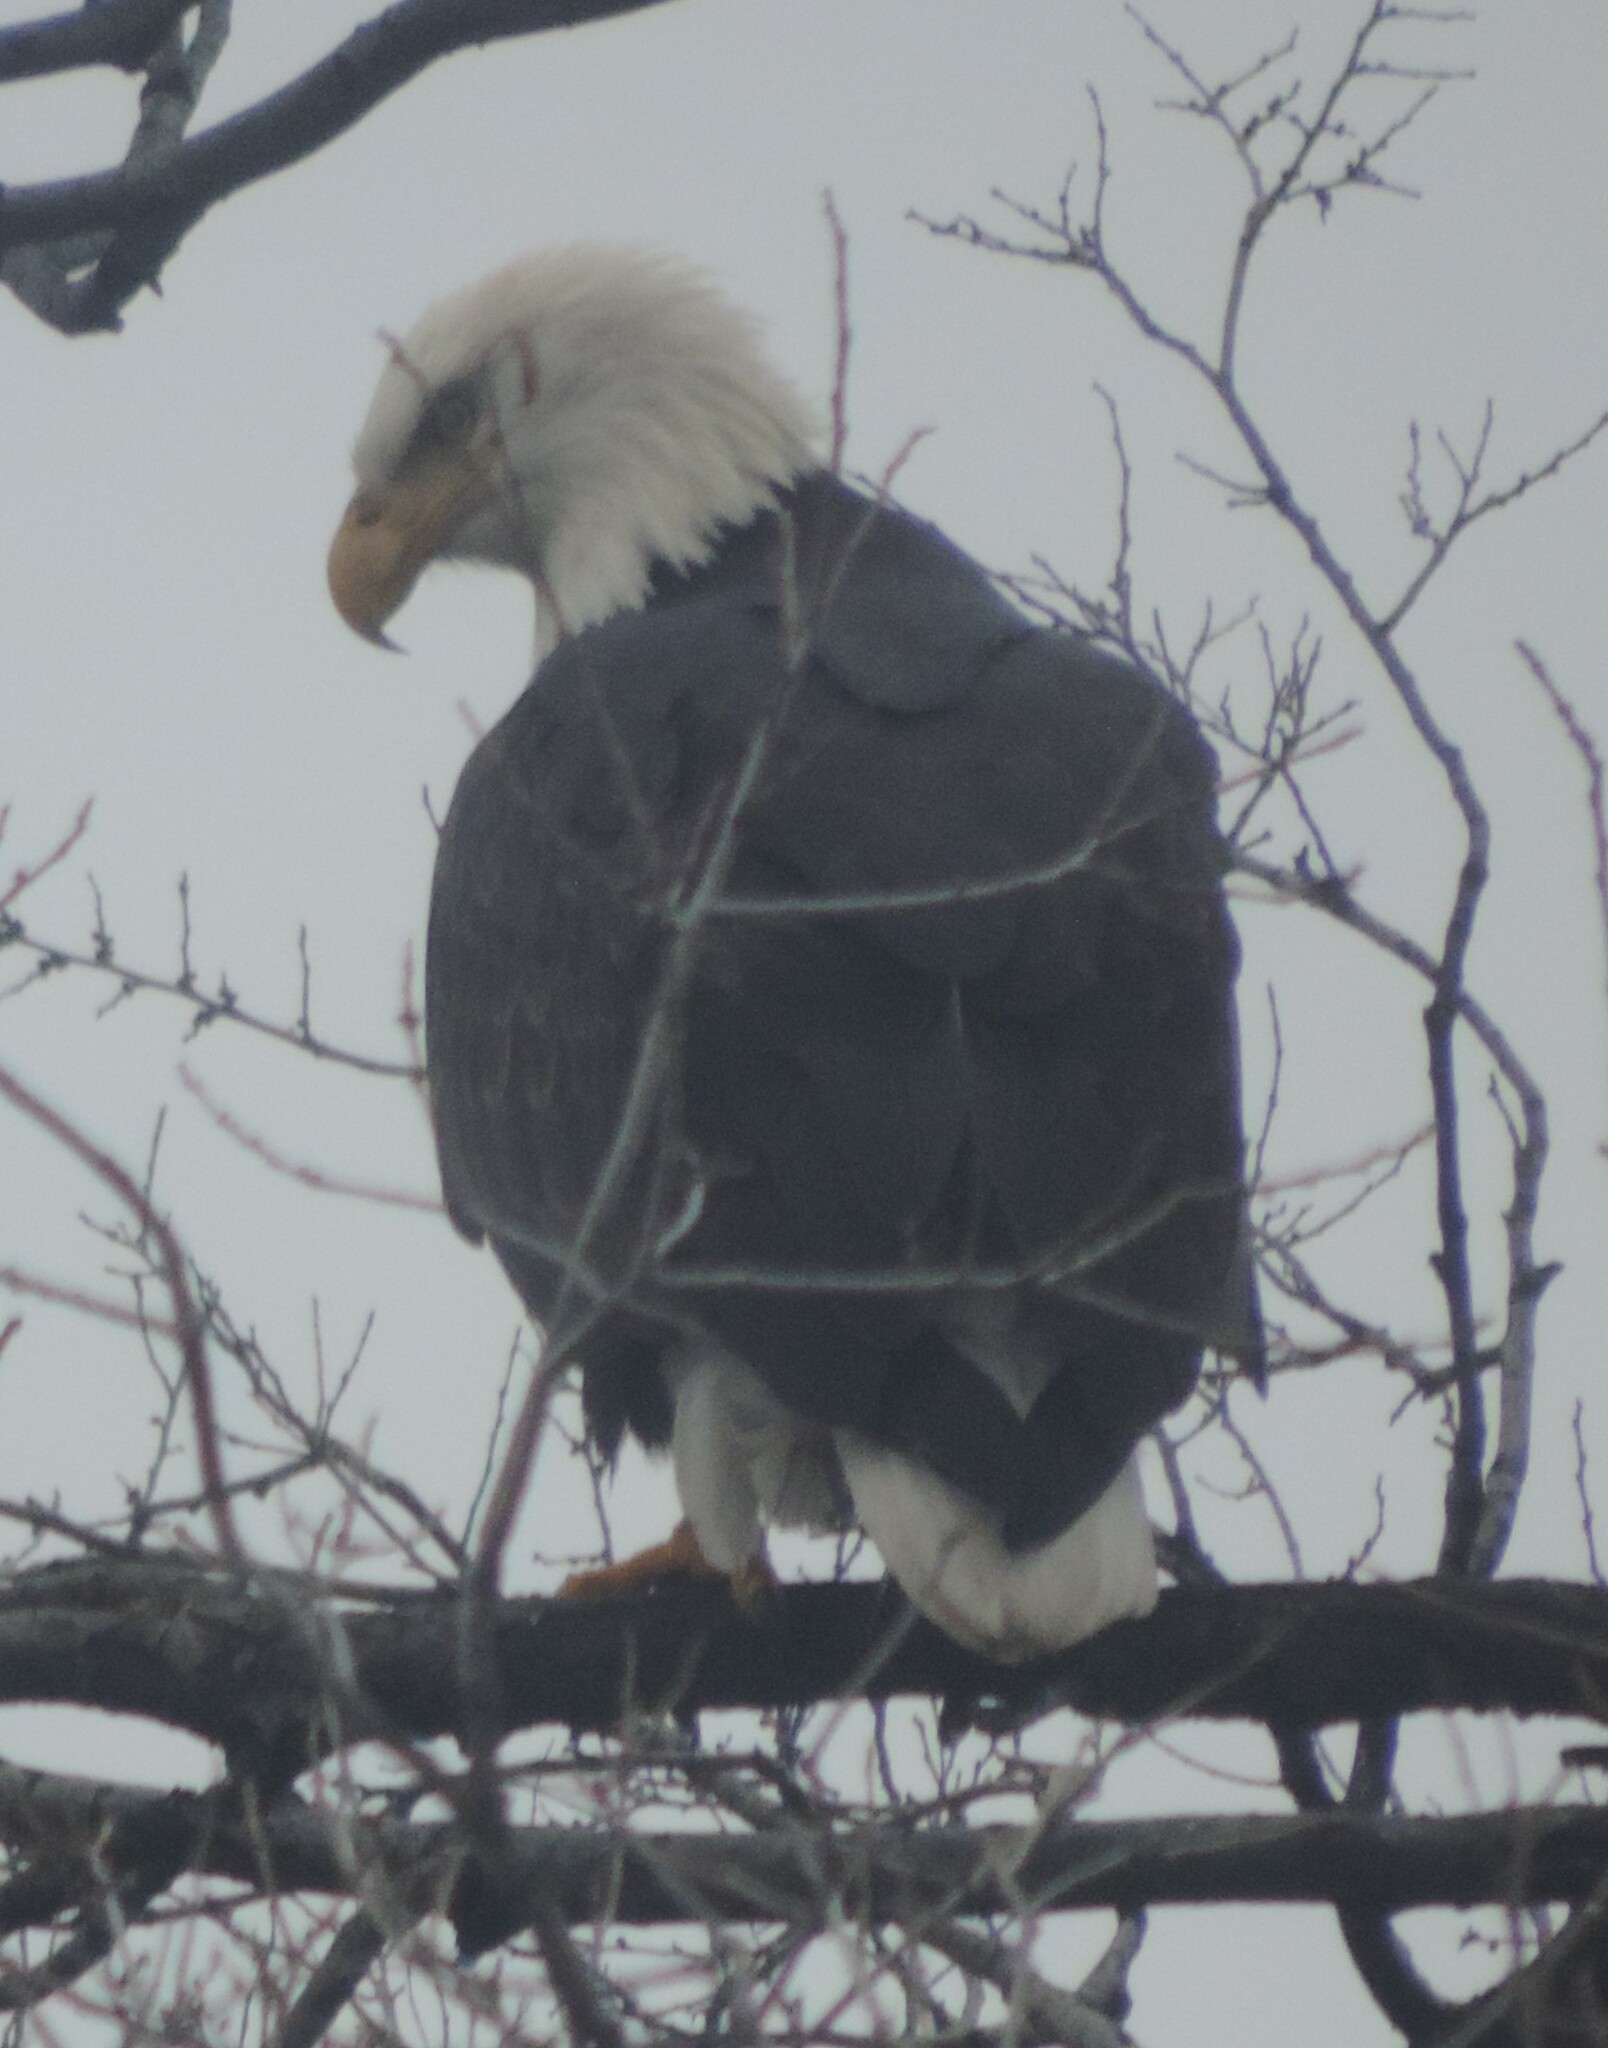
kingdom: Animalia
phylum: Chordata
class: Aves
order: Accipitriformes
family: Accipitridae
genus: Haliaeetus
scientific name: Haliaeetus leucocephalus
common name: Bald eagle
